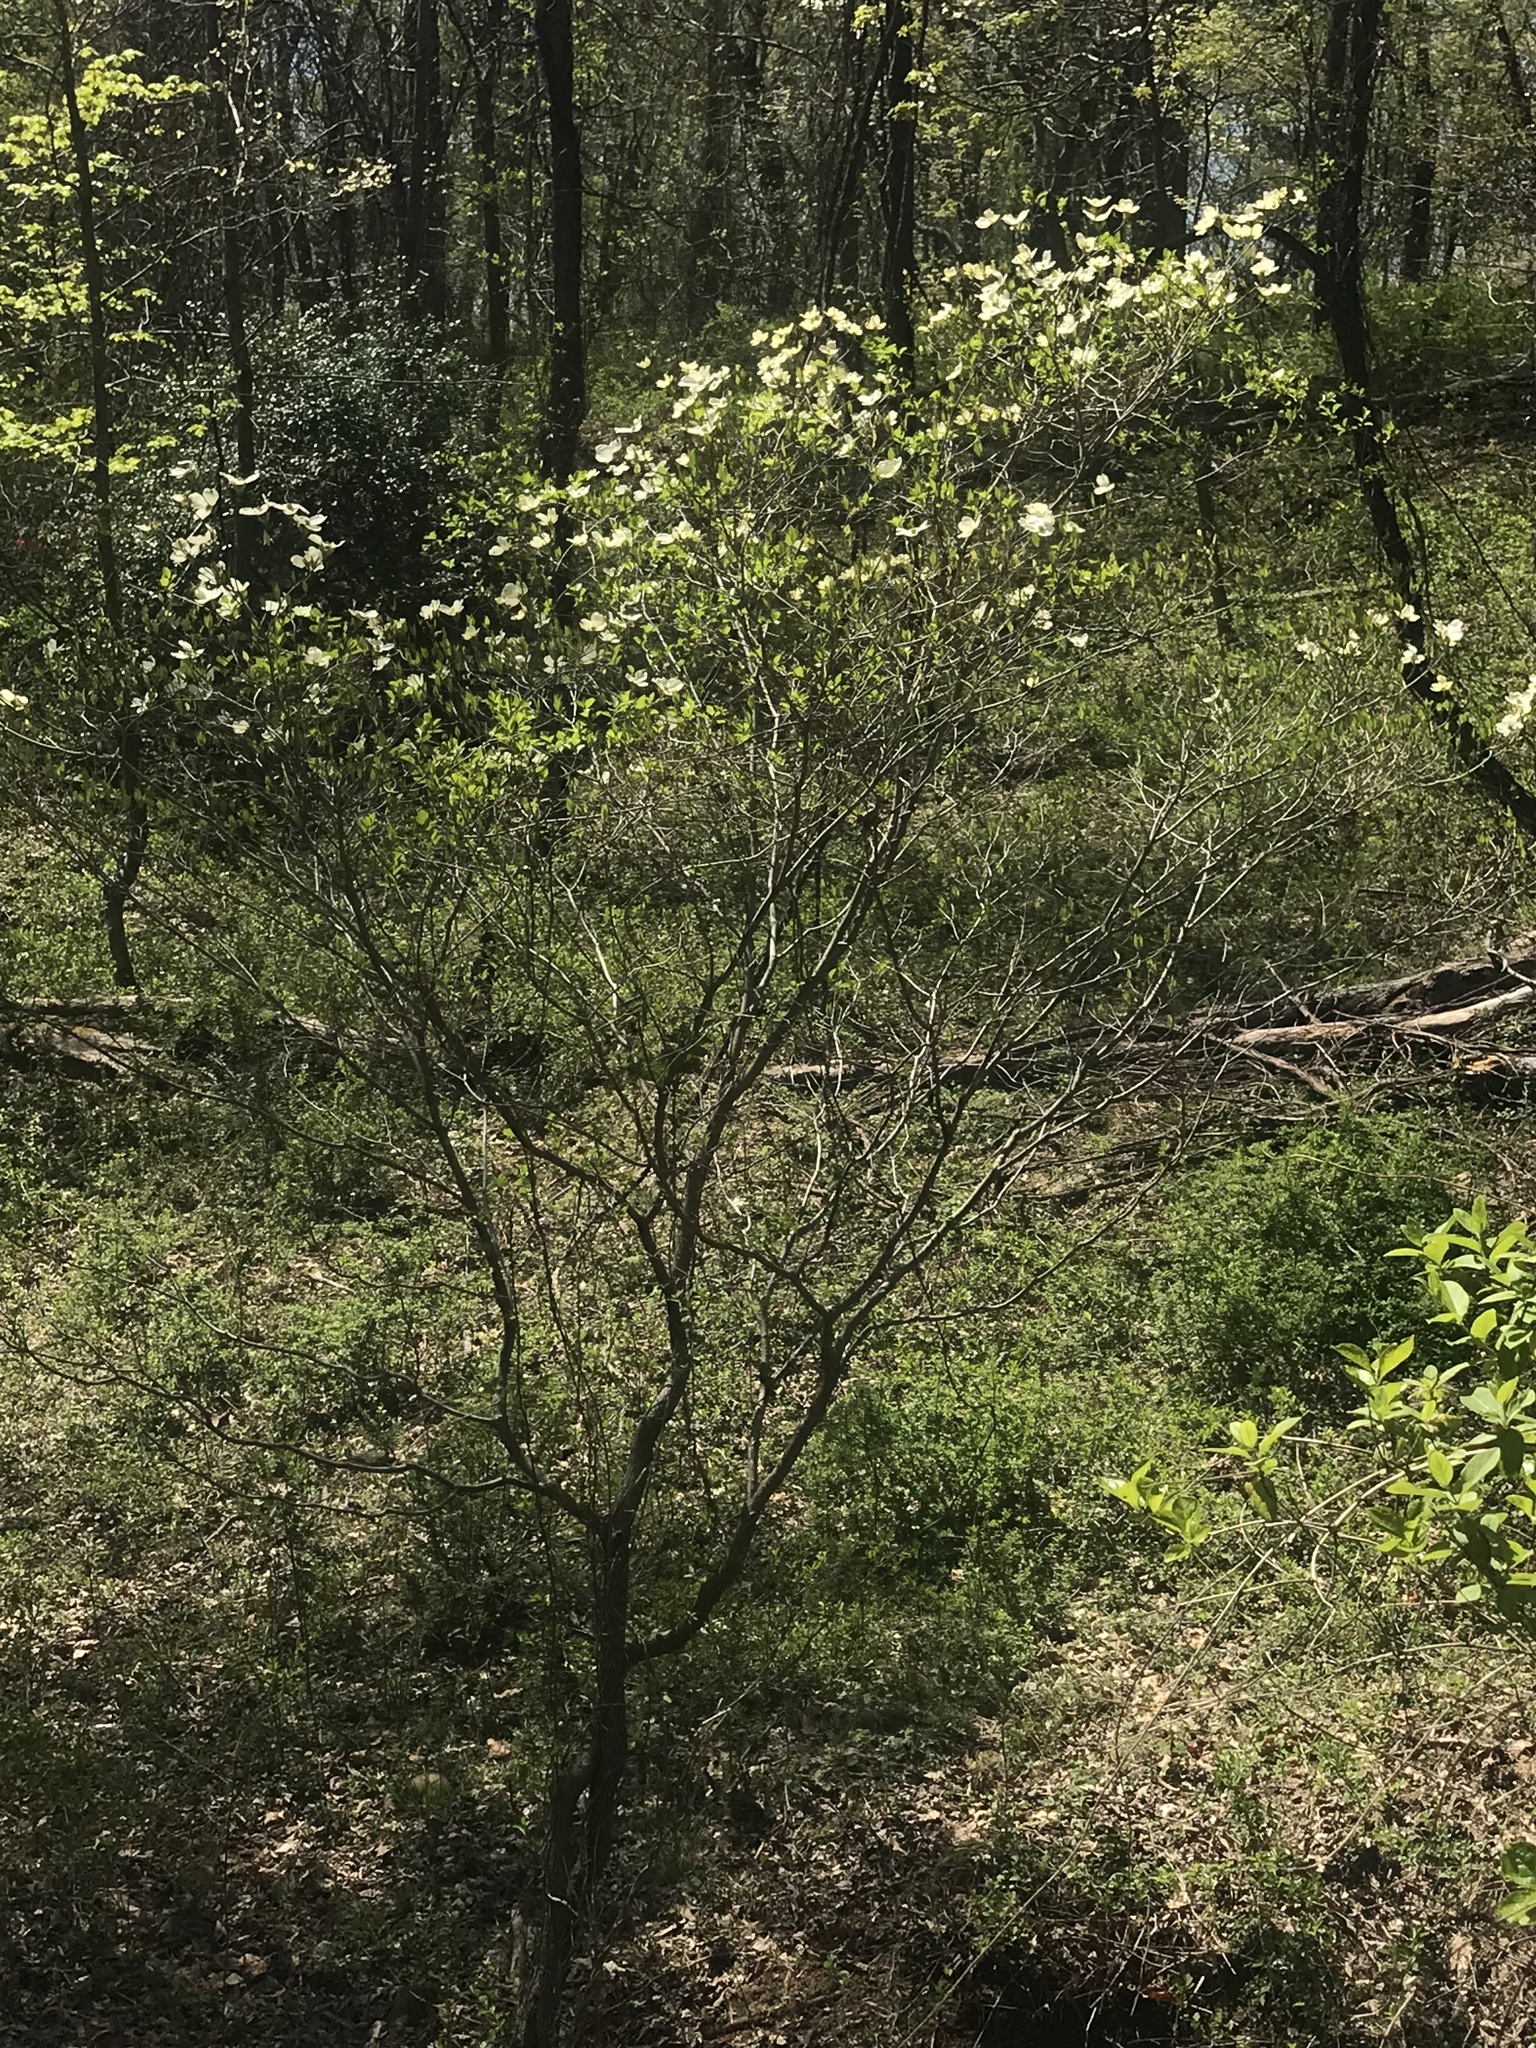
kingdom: Plantae
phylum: Tracheophyta
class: Magnoliopsida
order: Cornales
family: Cornaceae
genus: Cornus
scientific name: Cornus florida
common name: Flowering dogwood
